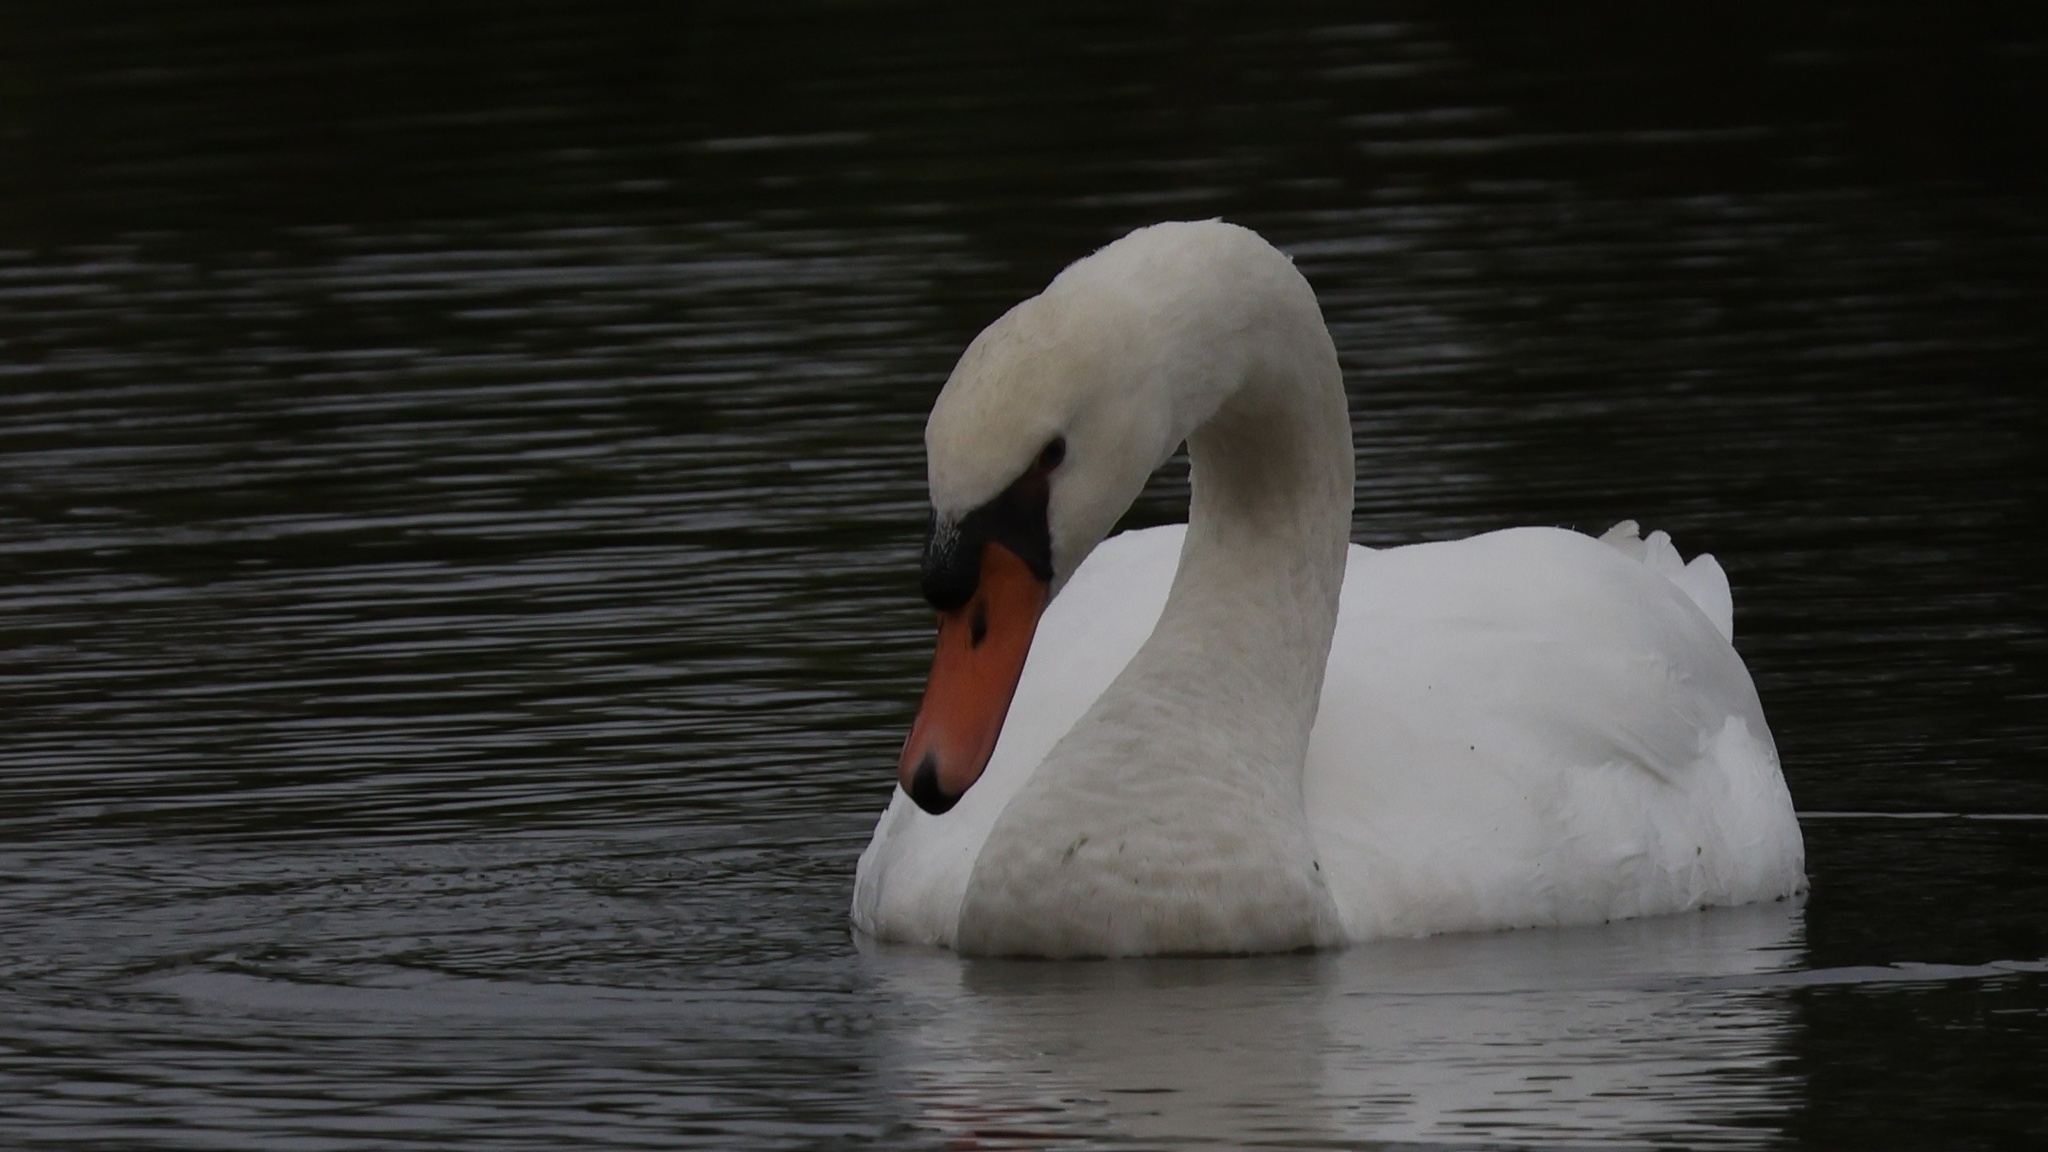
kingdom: Animalia
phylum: Chordata
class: Aves
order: Anseriformes
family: Anatidae
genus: Cygnus
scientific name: Cygnus olor
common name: Mute swan
